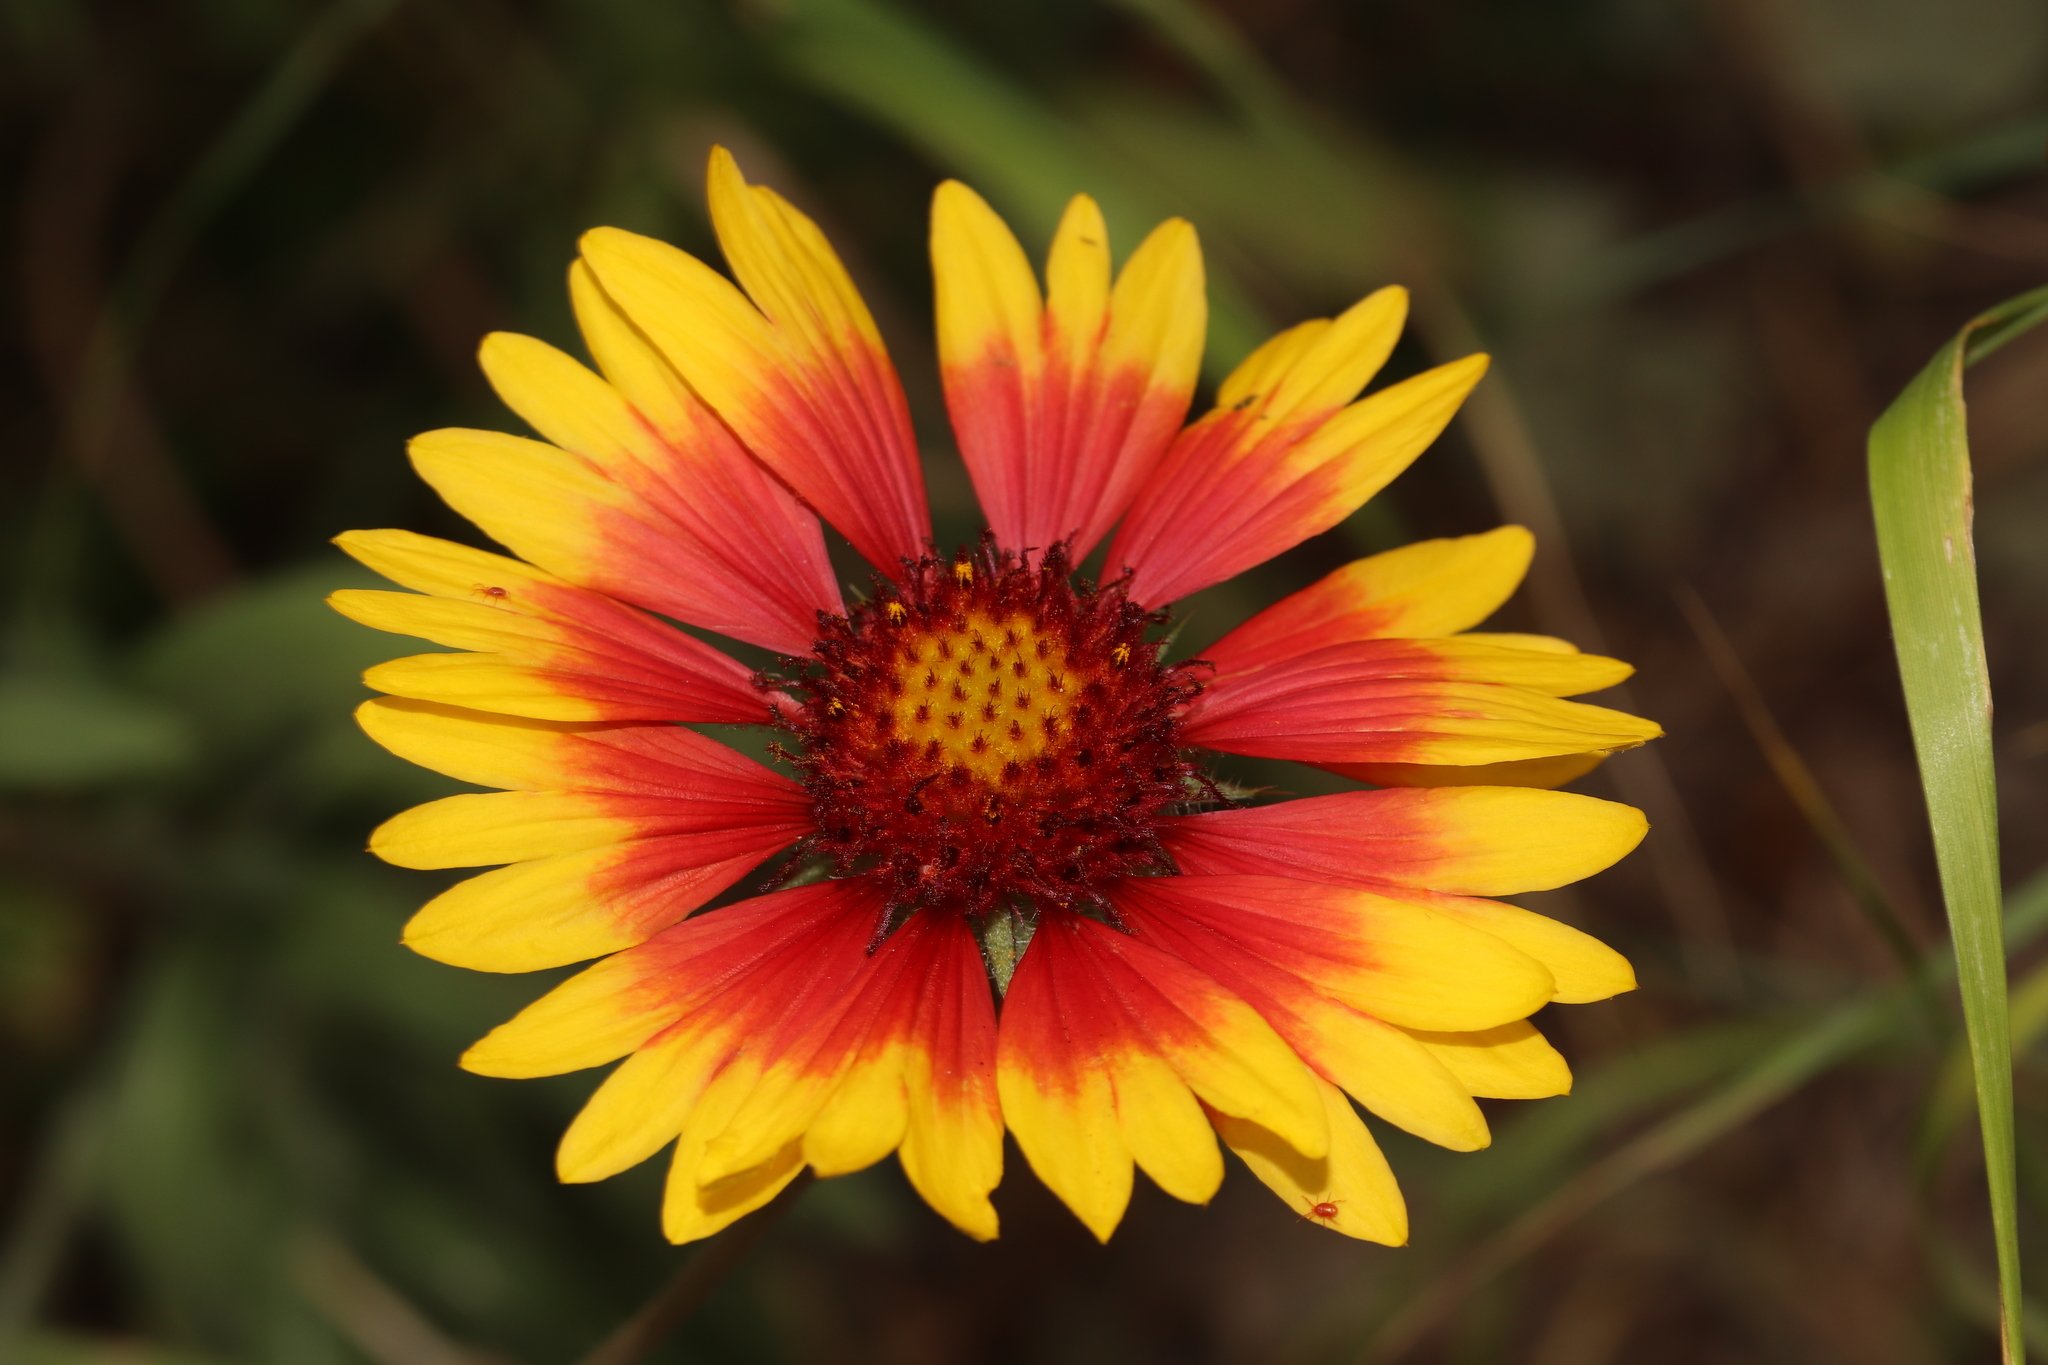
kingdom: Plantae
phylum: Tracheophyta
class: Magnoliopsida
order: Asterales
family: Asteraceae
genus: Gaillardia
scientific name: Gaillardia aristata
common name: Blanket-flower
